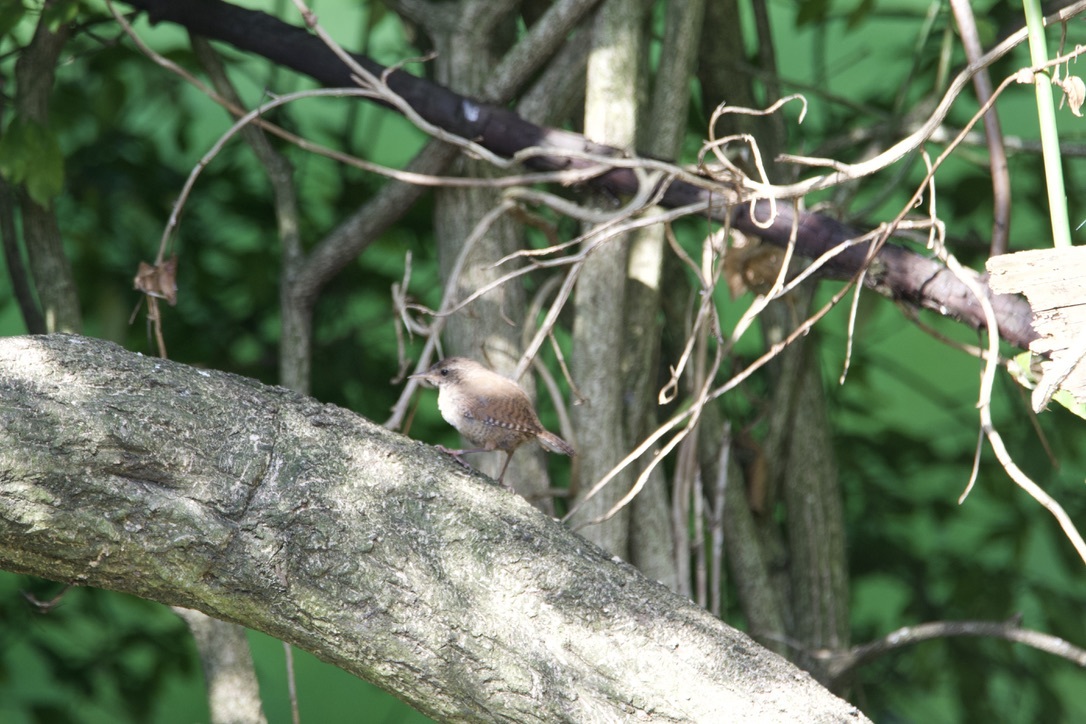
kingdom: Animalia
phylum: Chordata
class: Aves
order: Passeriformes
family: Troglodytidae
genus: Troglodytes
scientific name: Troglodytes troglodytes
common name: Eurasian wren
